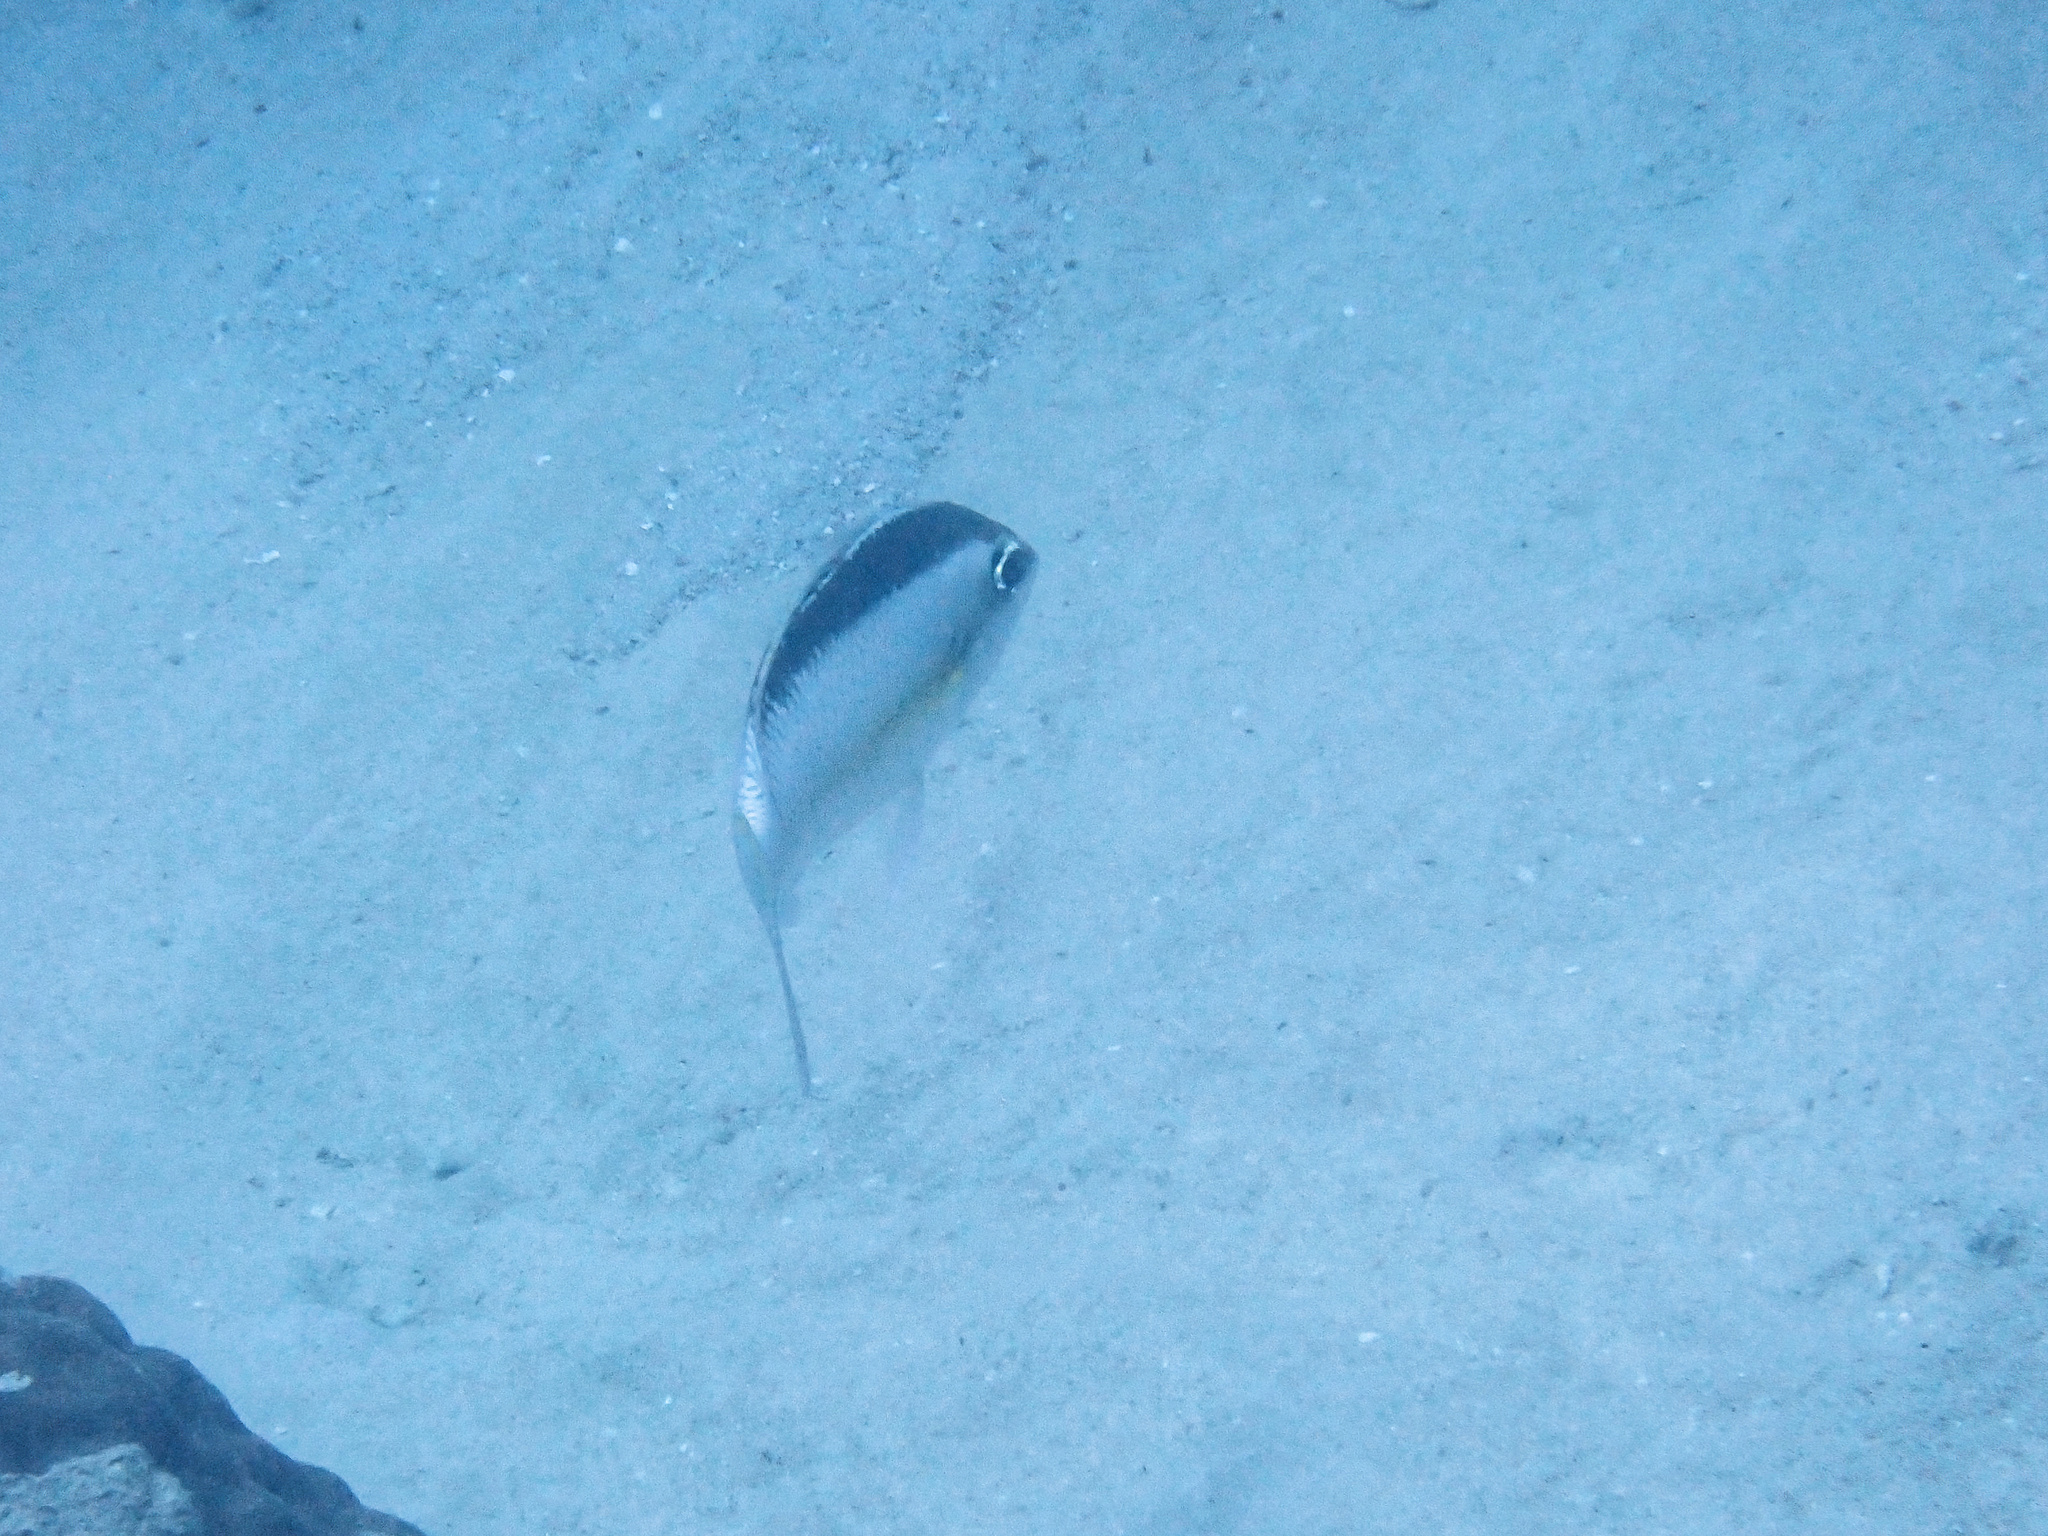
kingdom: Animalia
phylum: Chordata
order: Perciformes
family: Nemipteridae
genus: Scolopsis
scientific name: Scolopsis margaritifera
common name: Pearly monocle bream
